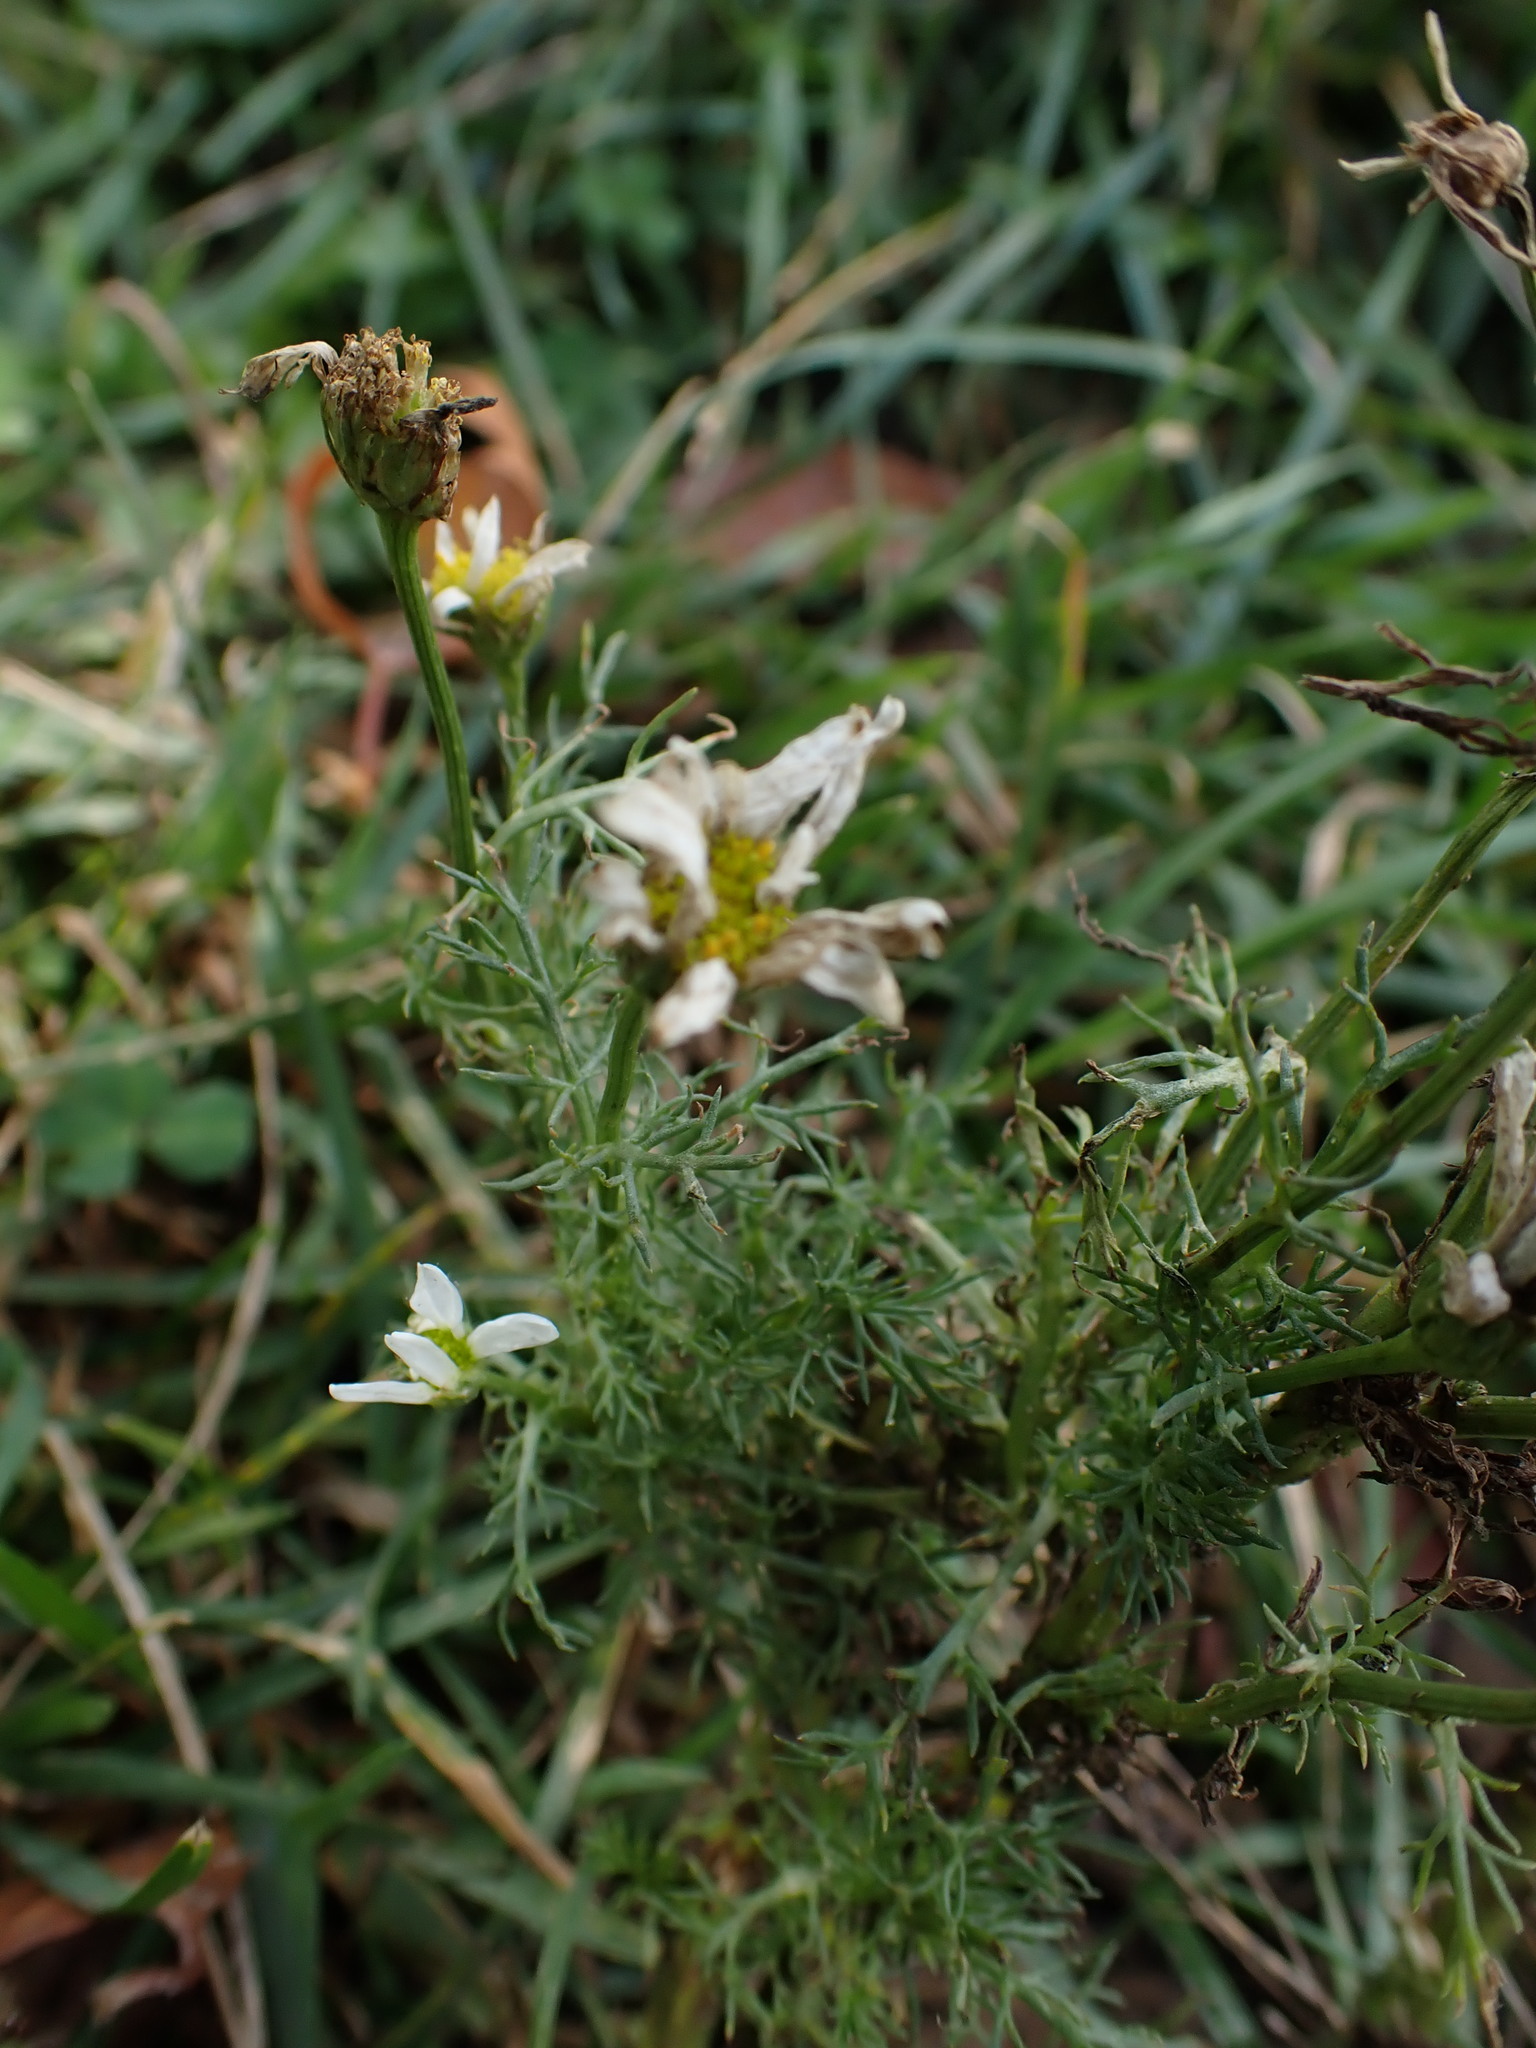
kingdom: Plantae
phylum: Tracheophyta
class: Magnoliopsida
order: Asterales
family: Asteraceae
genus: Tripleurospermum
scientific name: Tripleurospermum inodorum
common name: Scentless mayweed
